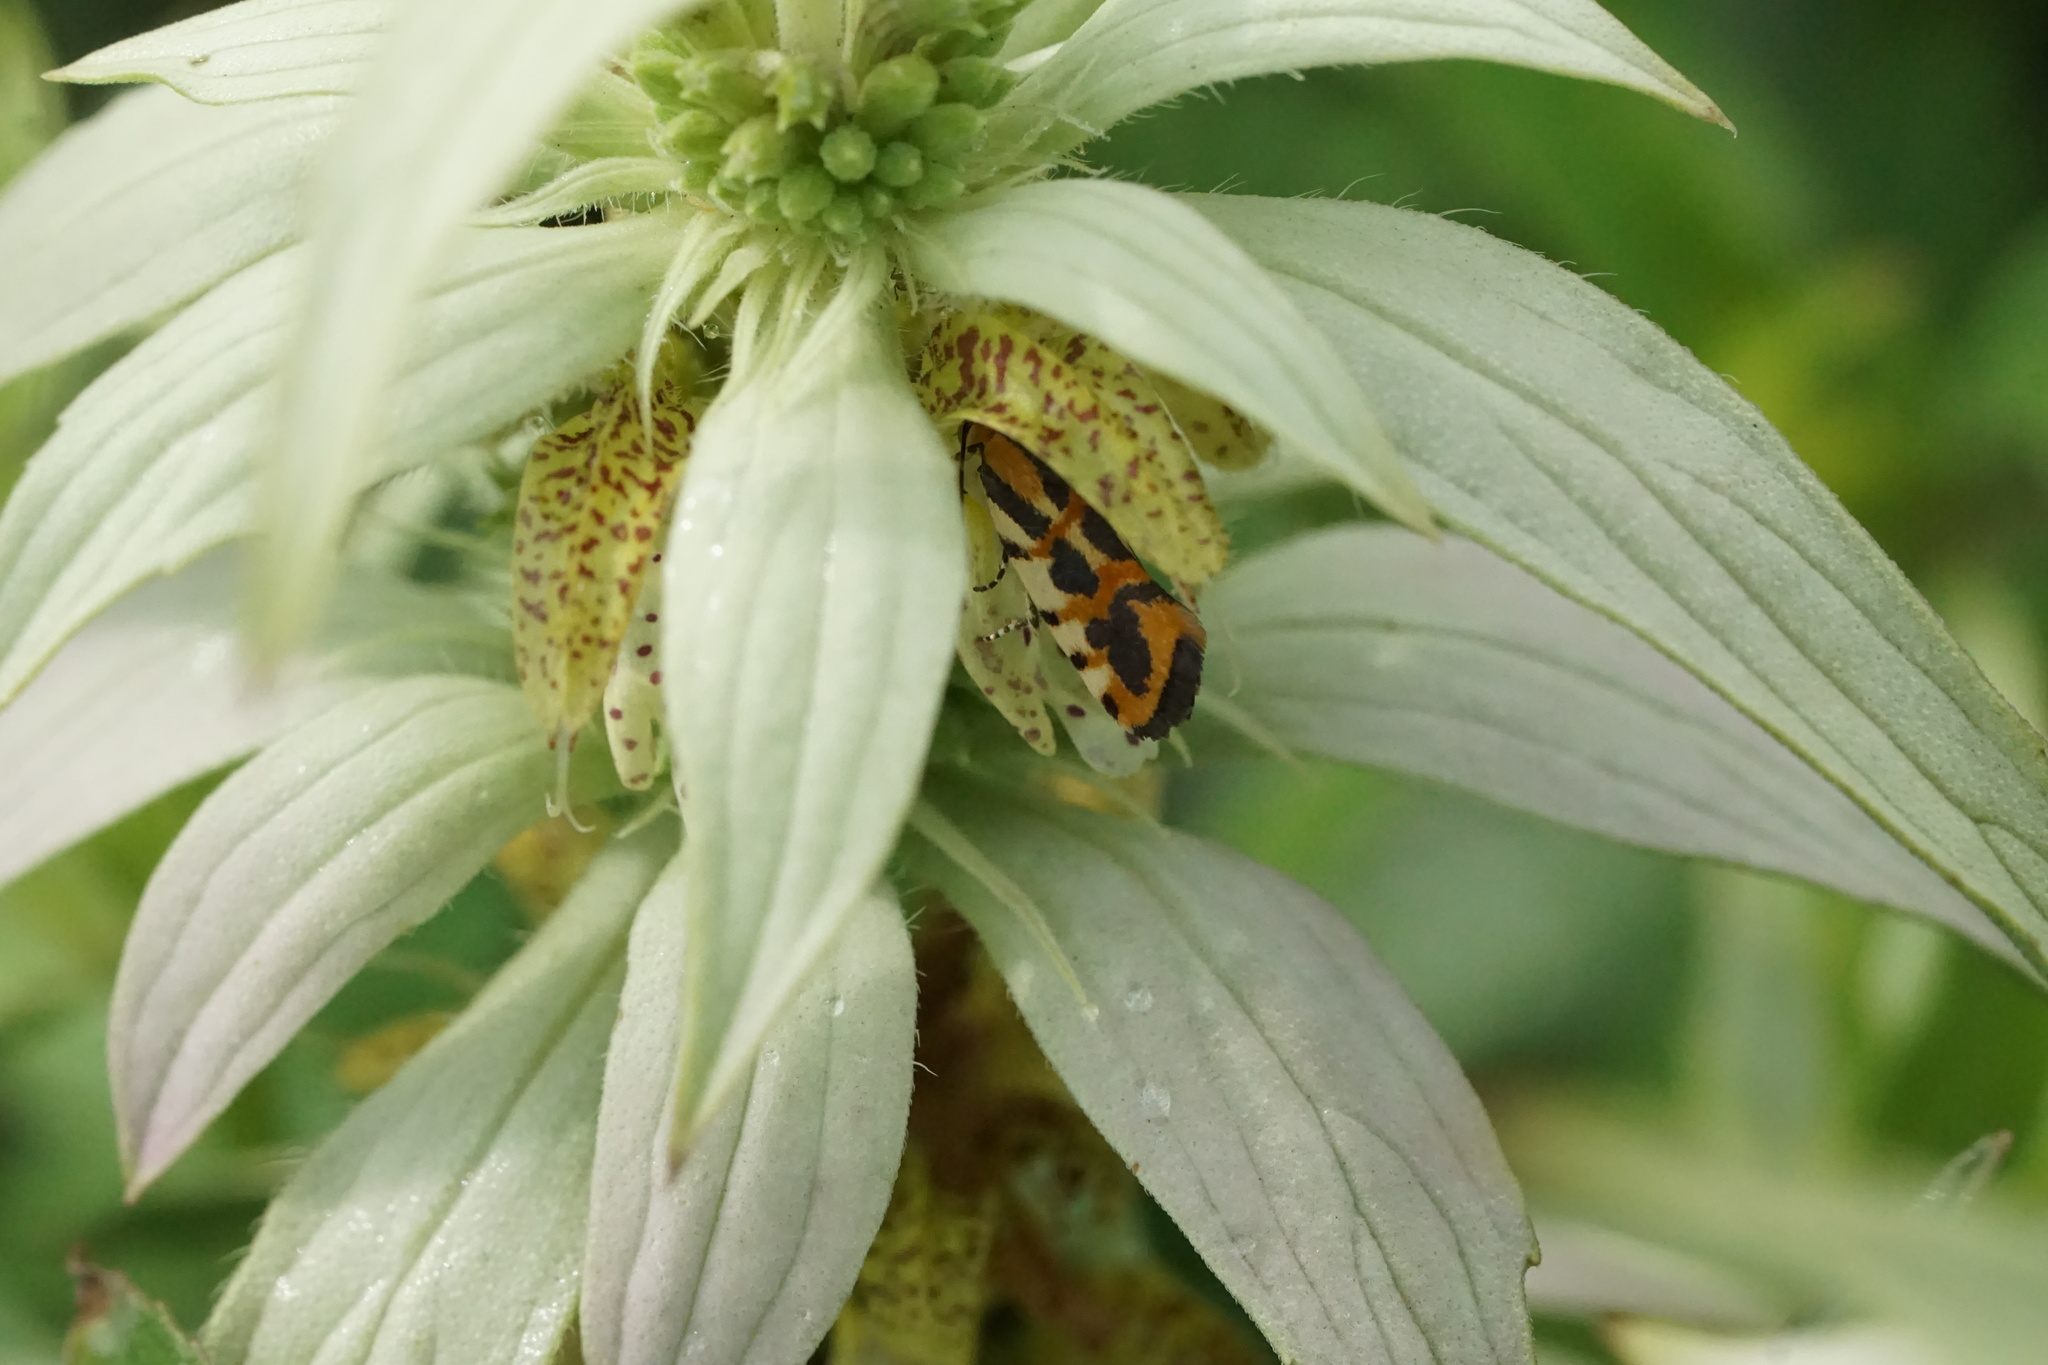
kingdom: Animalia
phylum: Arthropoda
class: Insecta
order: Lepidoptera
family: Noctuidae
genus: Acontia
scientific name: Acontia leo
